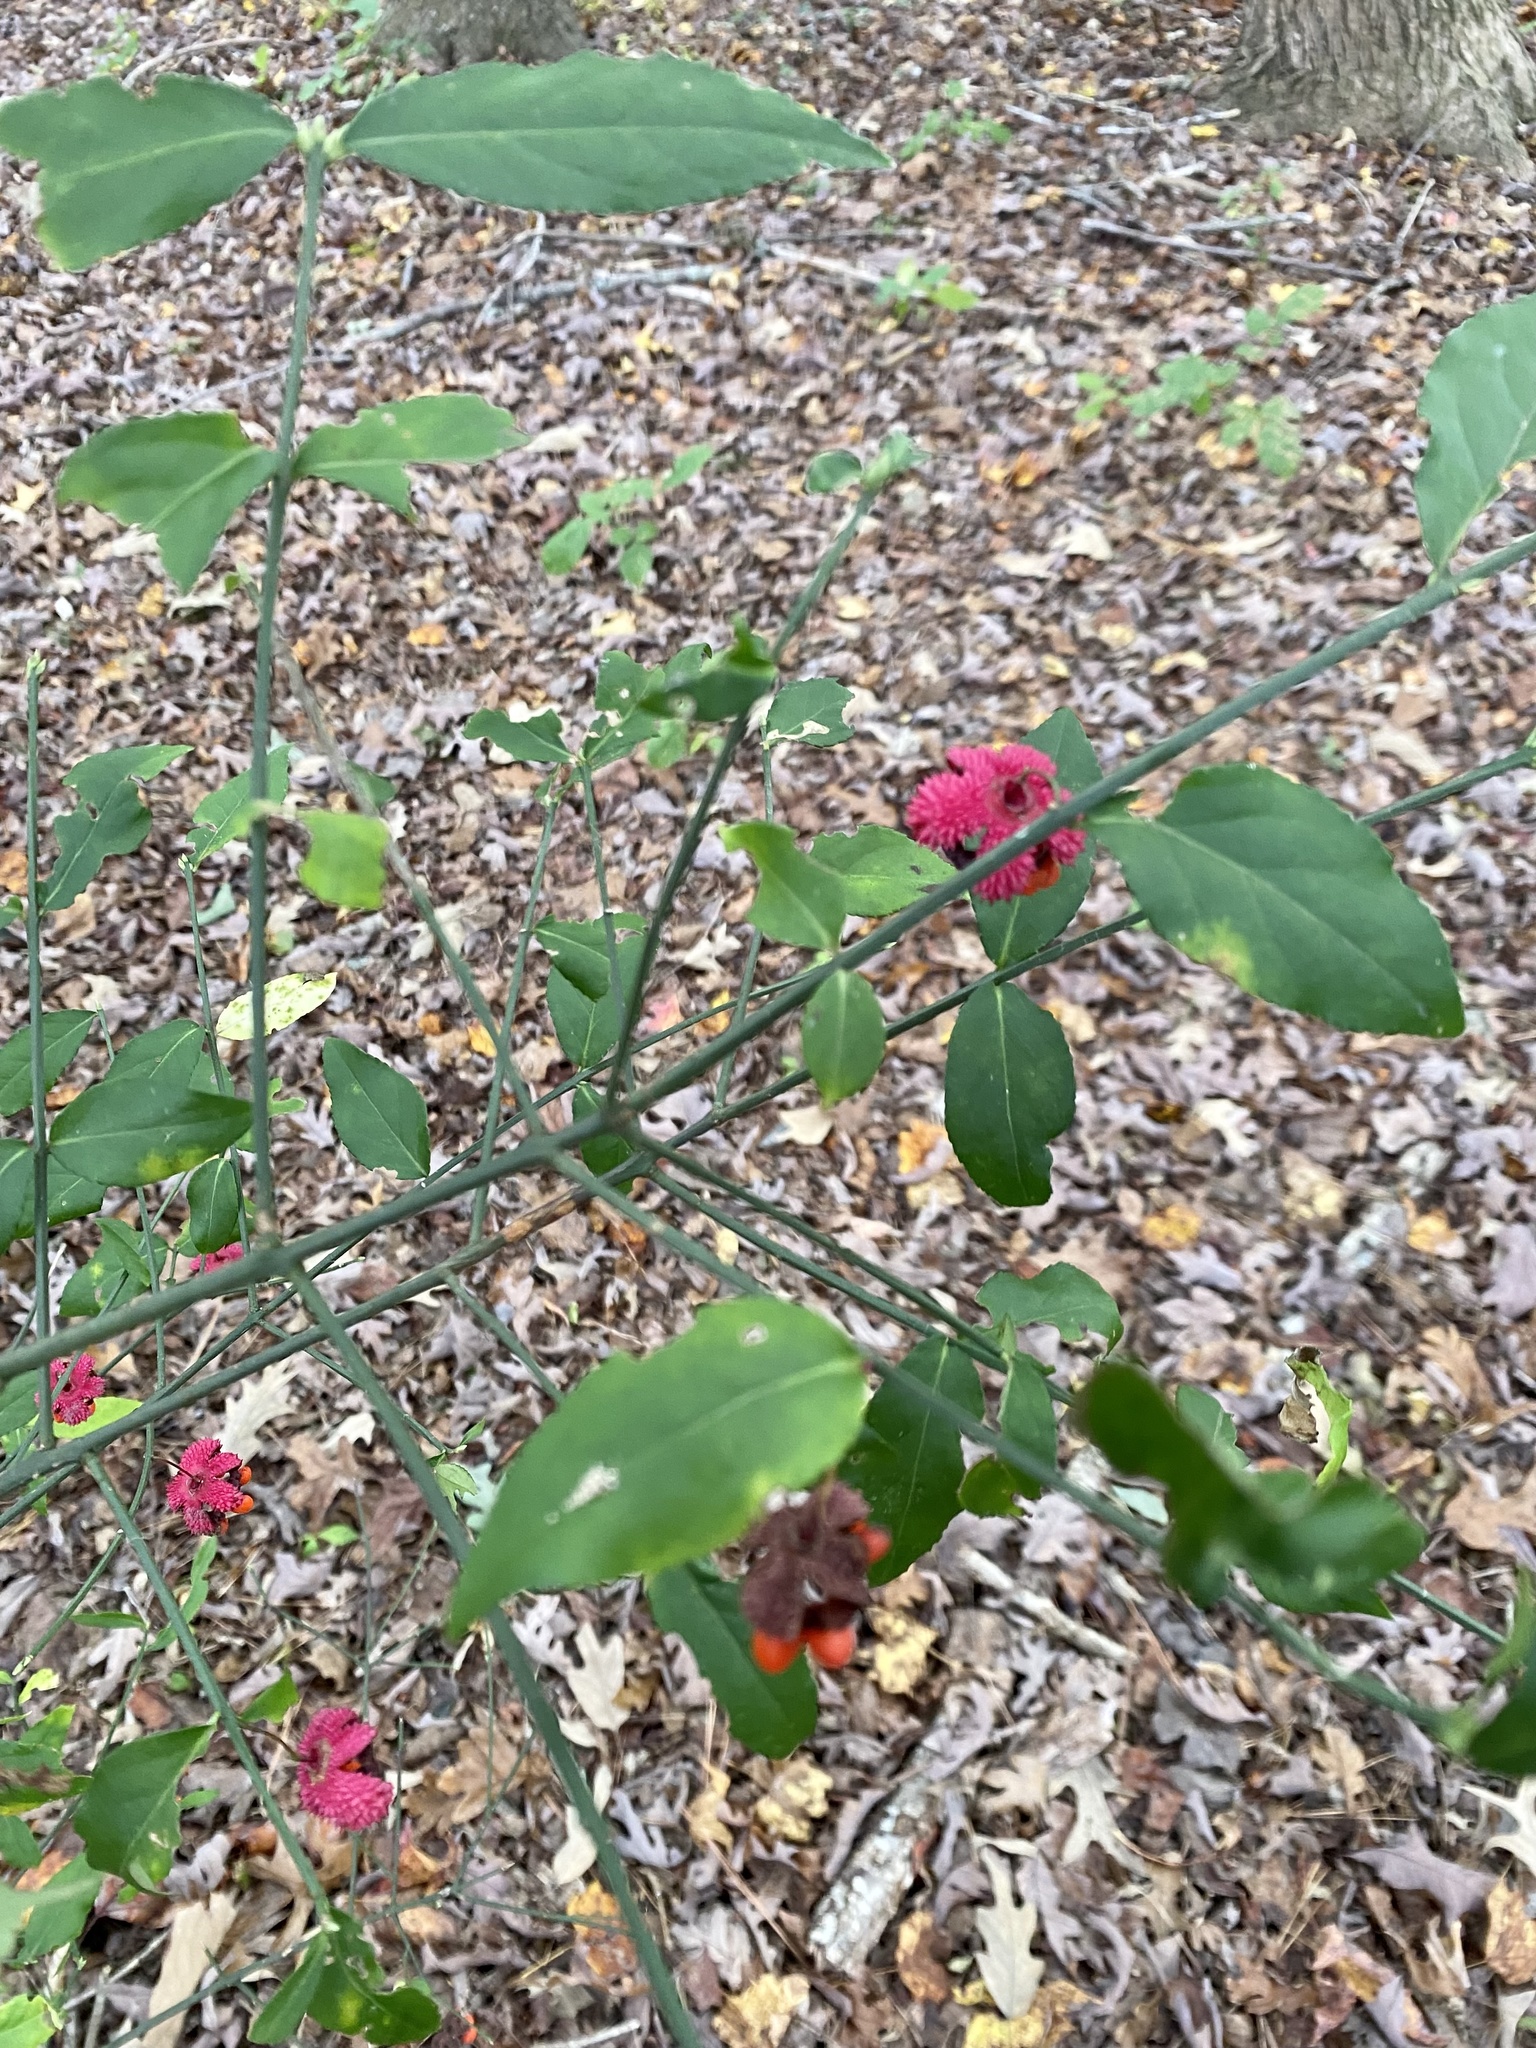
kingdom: Plantae
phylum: Tracheophyta
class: Magnoliopsida
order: Celastrales
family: Celastraceae
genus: Euonymus
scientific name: Euonymus americanus
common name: Bursting-heart
